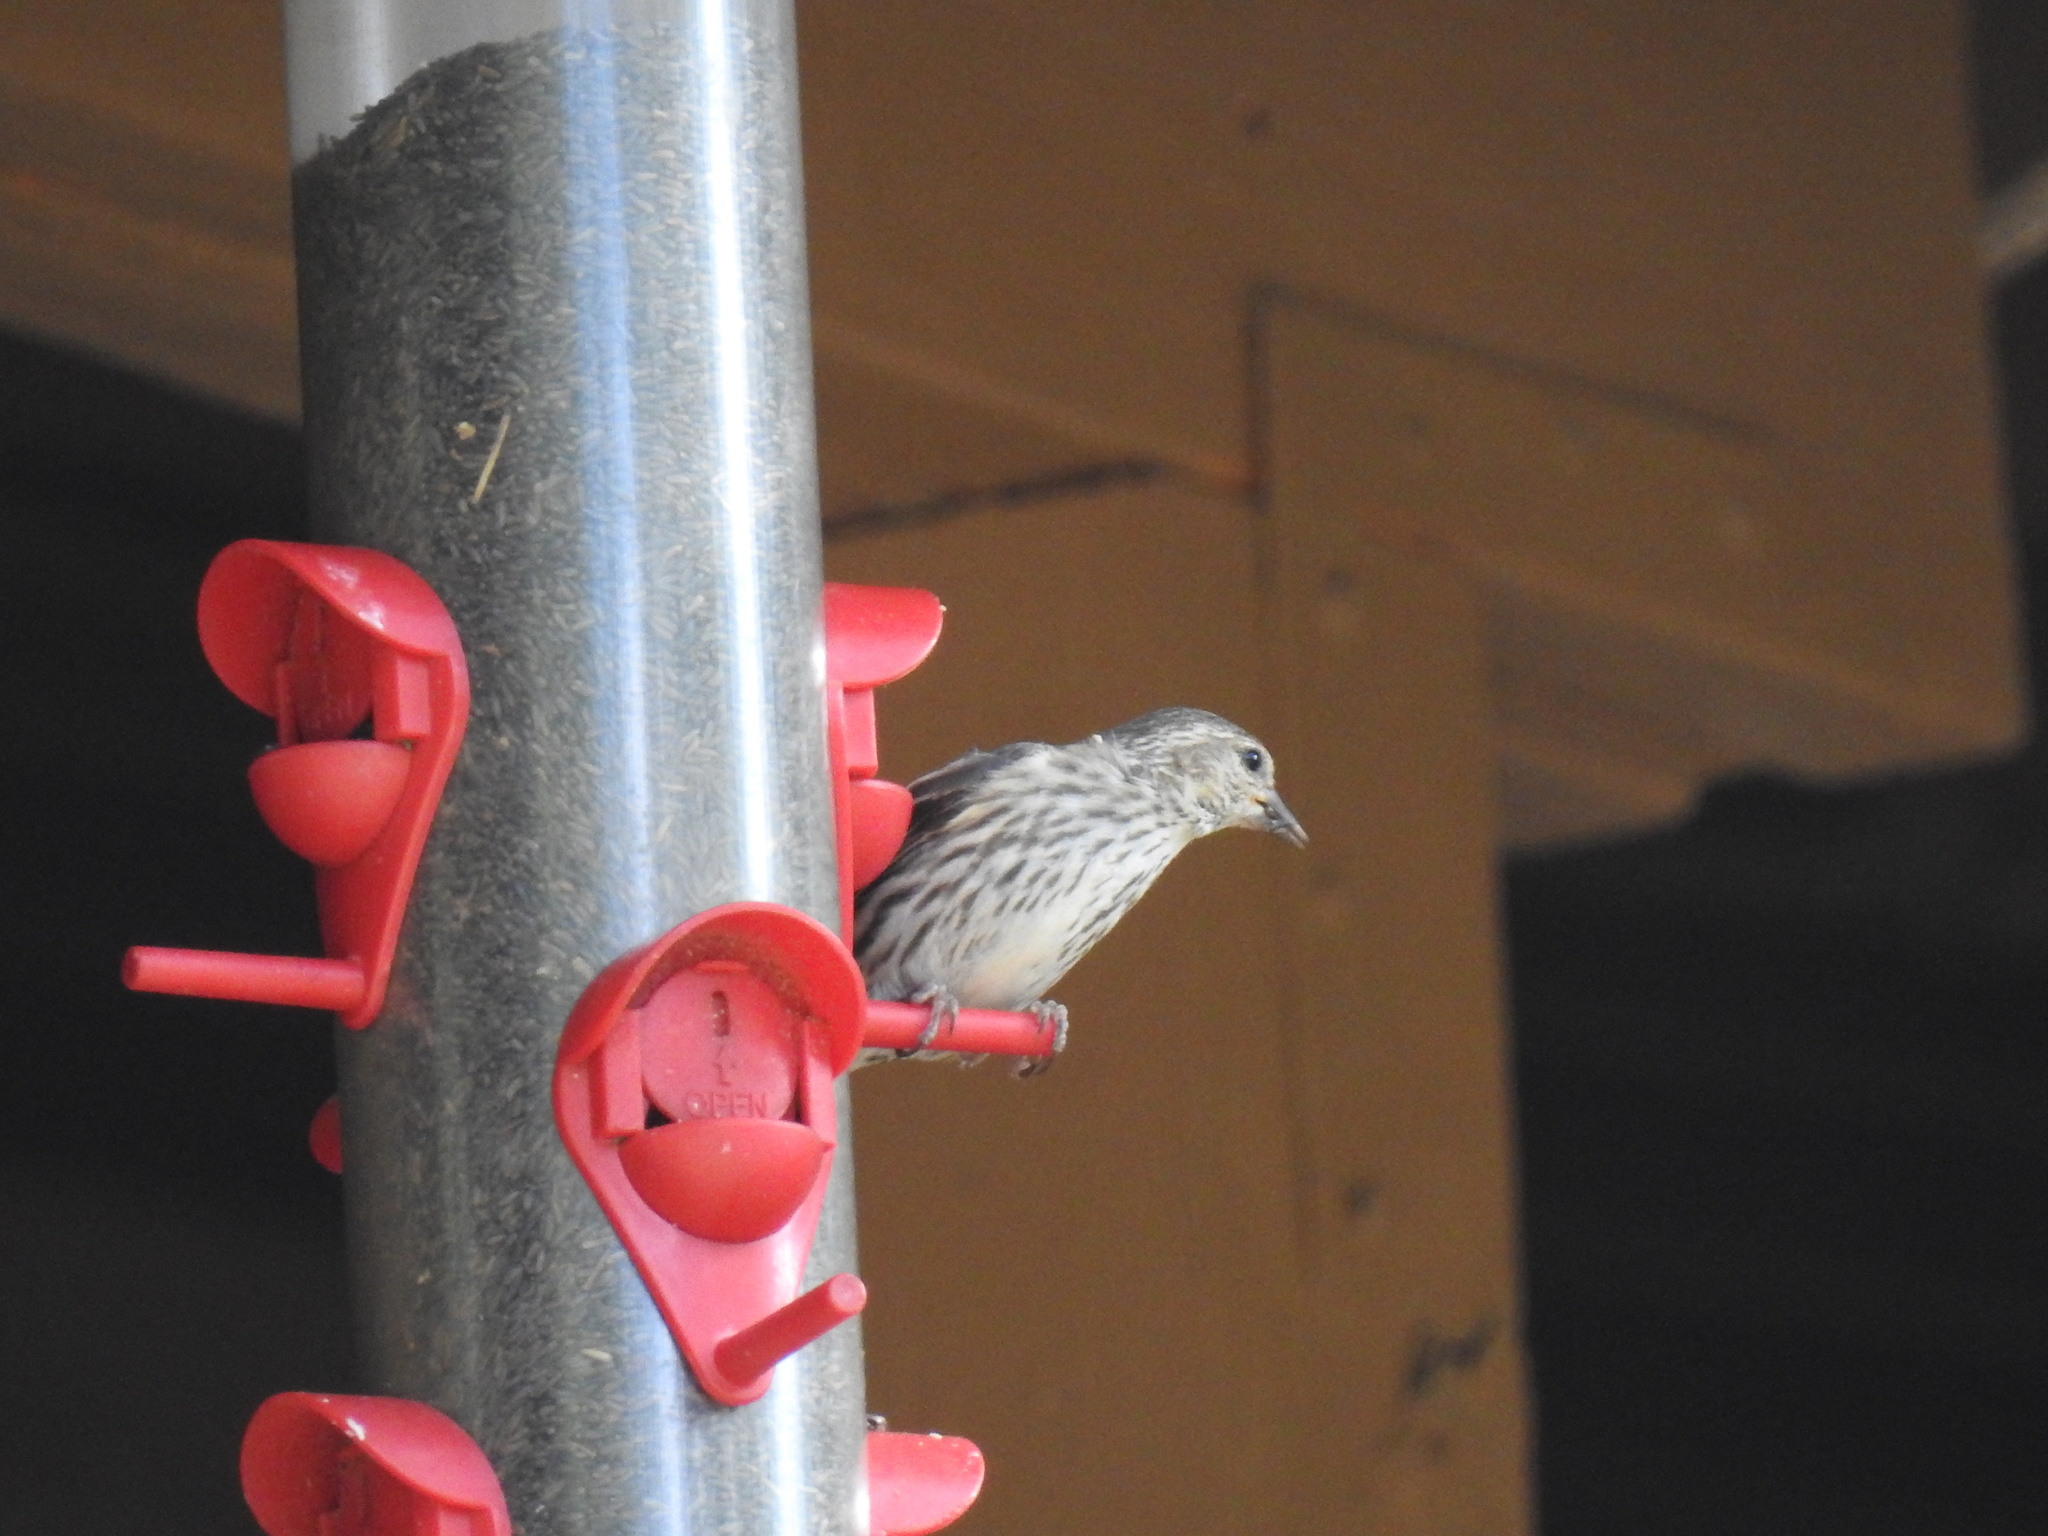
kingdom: Animalia
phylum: Chordata
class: Aves
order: Passeriformes
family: Fringillidae
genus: Spinus
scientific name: Spinus pinus
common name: Pine siskin
